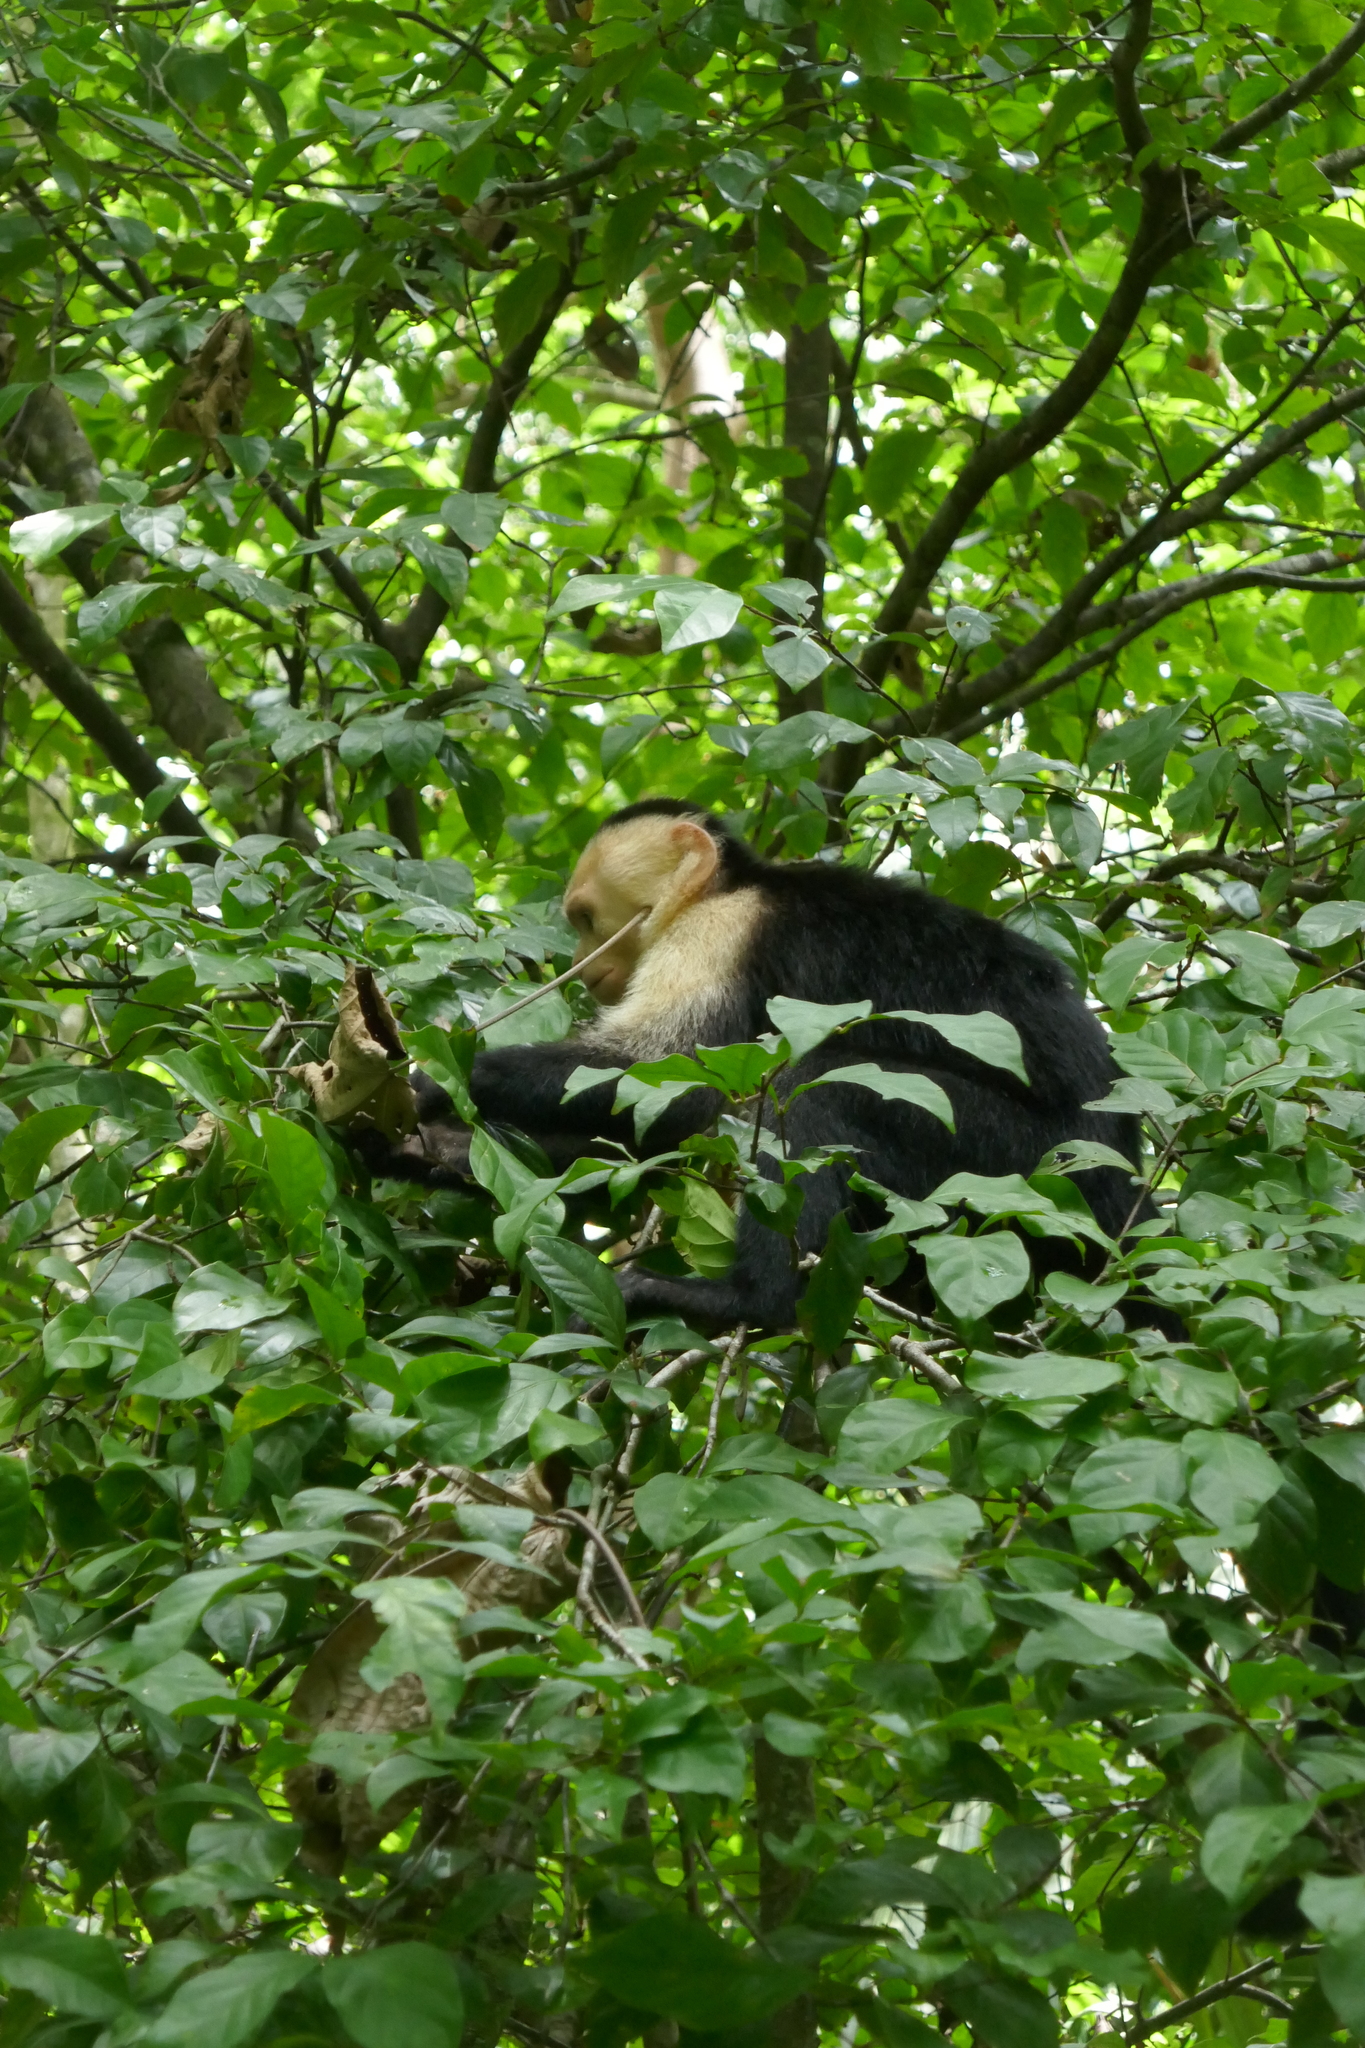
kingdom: Animalia
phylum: Chordata
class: Mammalia
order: Primates
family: Cebidae
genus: Cebus
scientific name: Cebus imitator
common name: Panamanian white-faced capuchin
